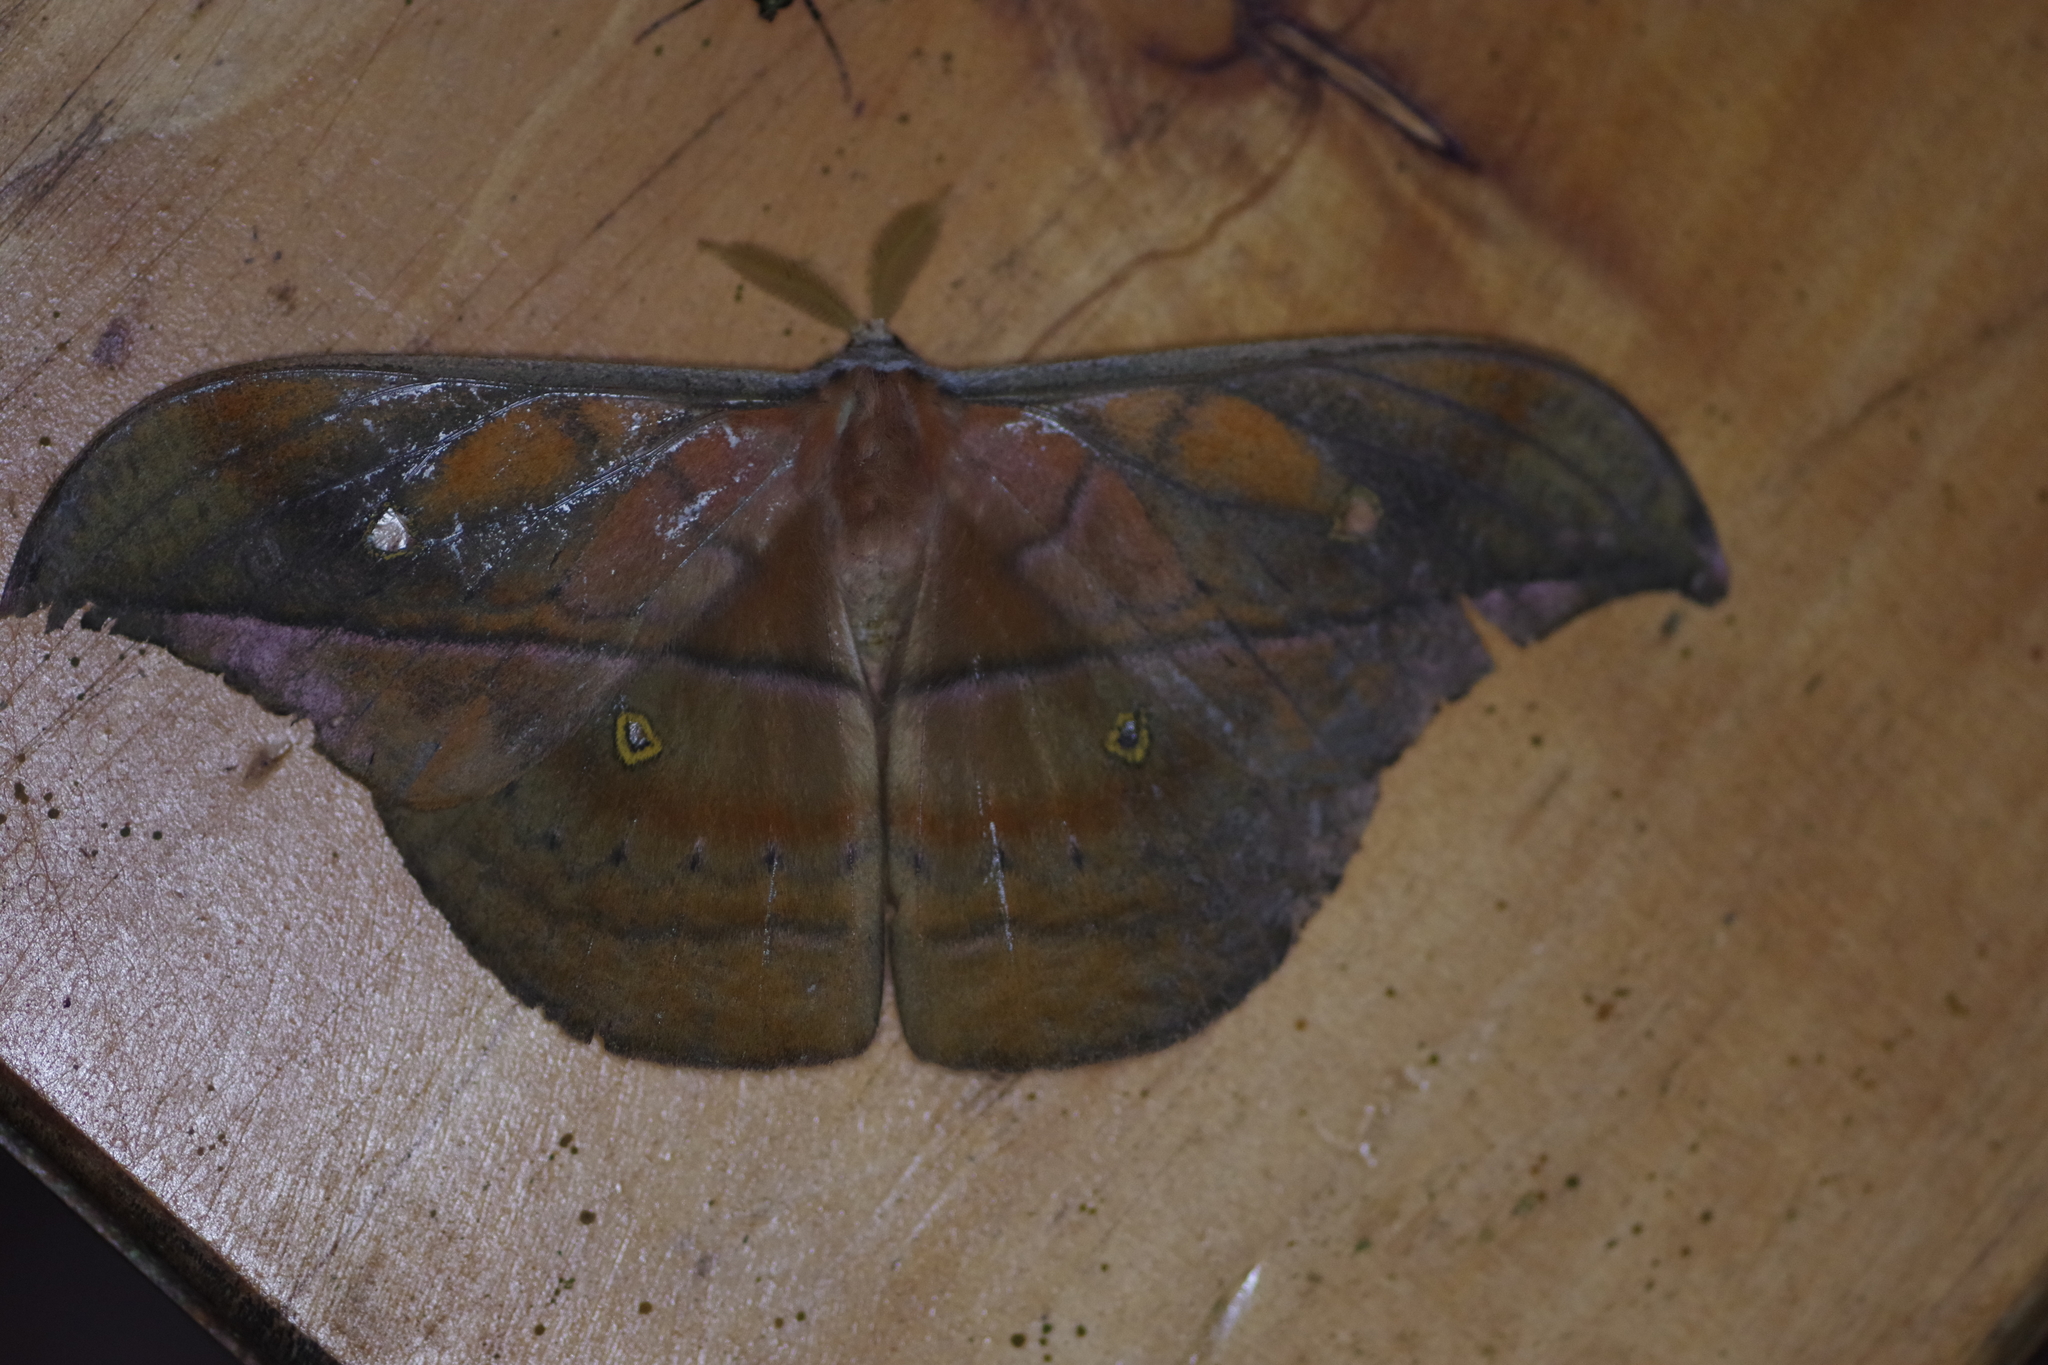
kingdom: Animalia
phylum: Arthropoda
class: Insecta
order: Lepidoptera
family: Saturniidae
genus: Copaxa
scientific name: Copaxa moinieri
